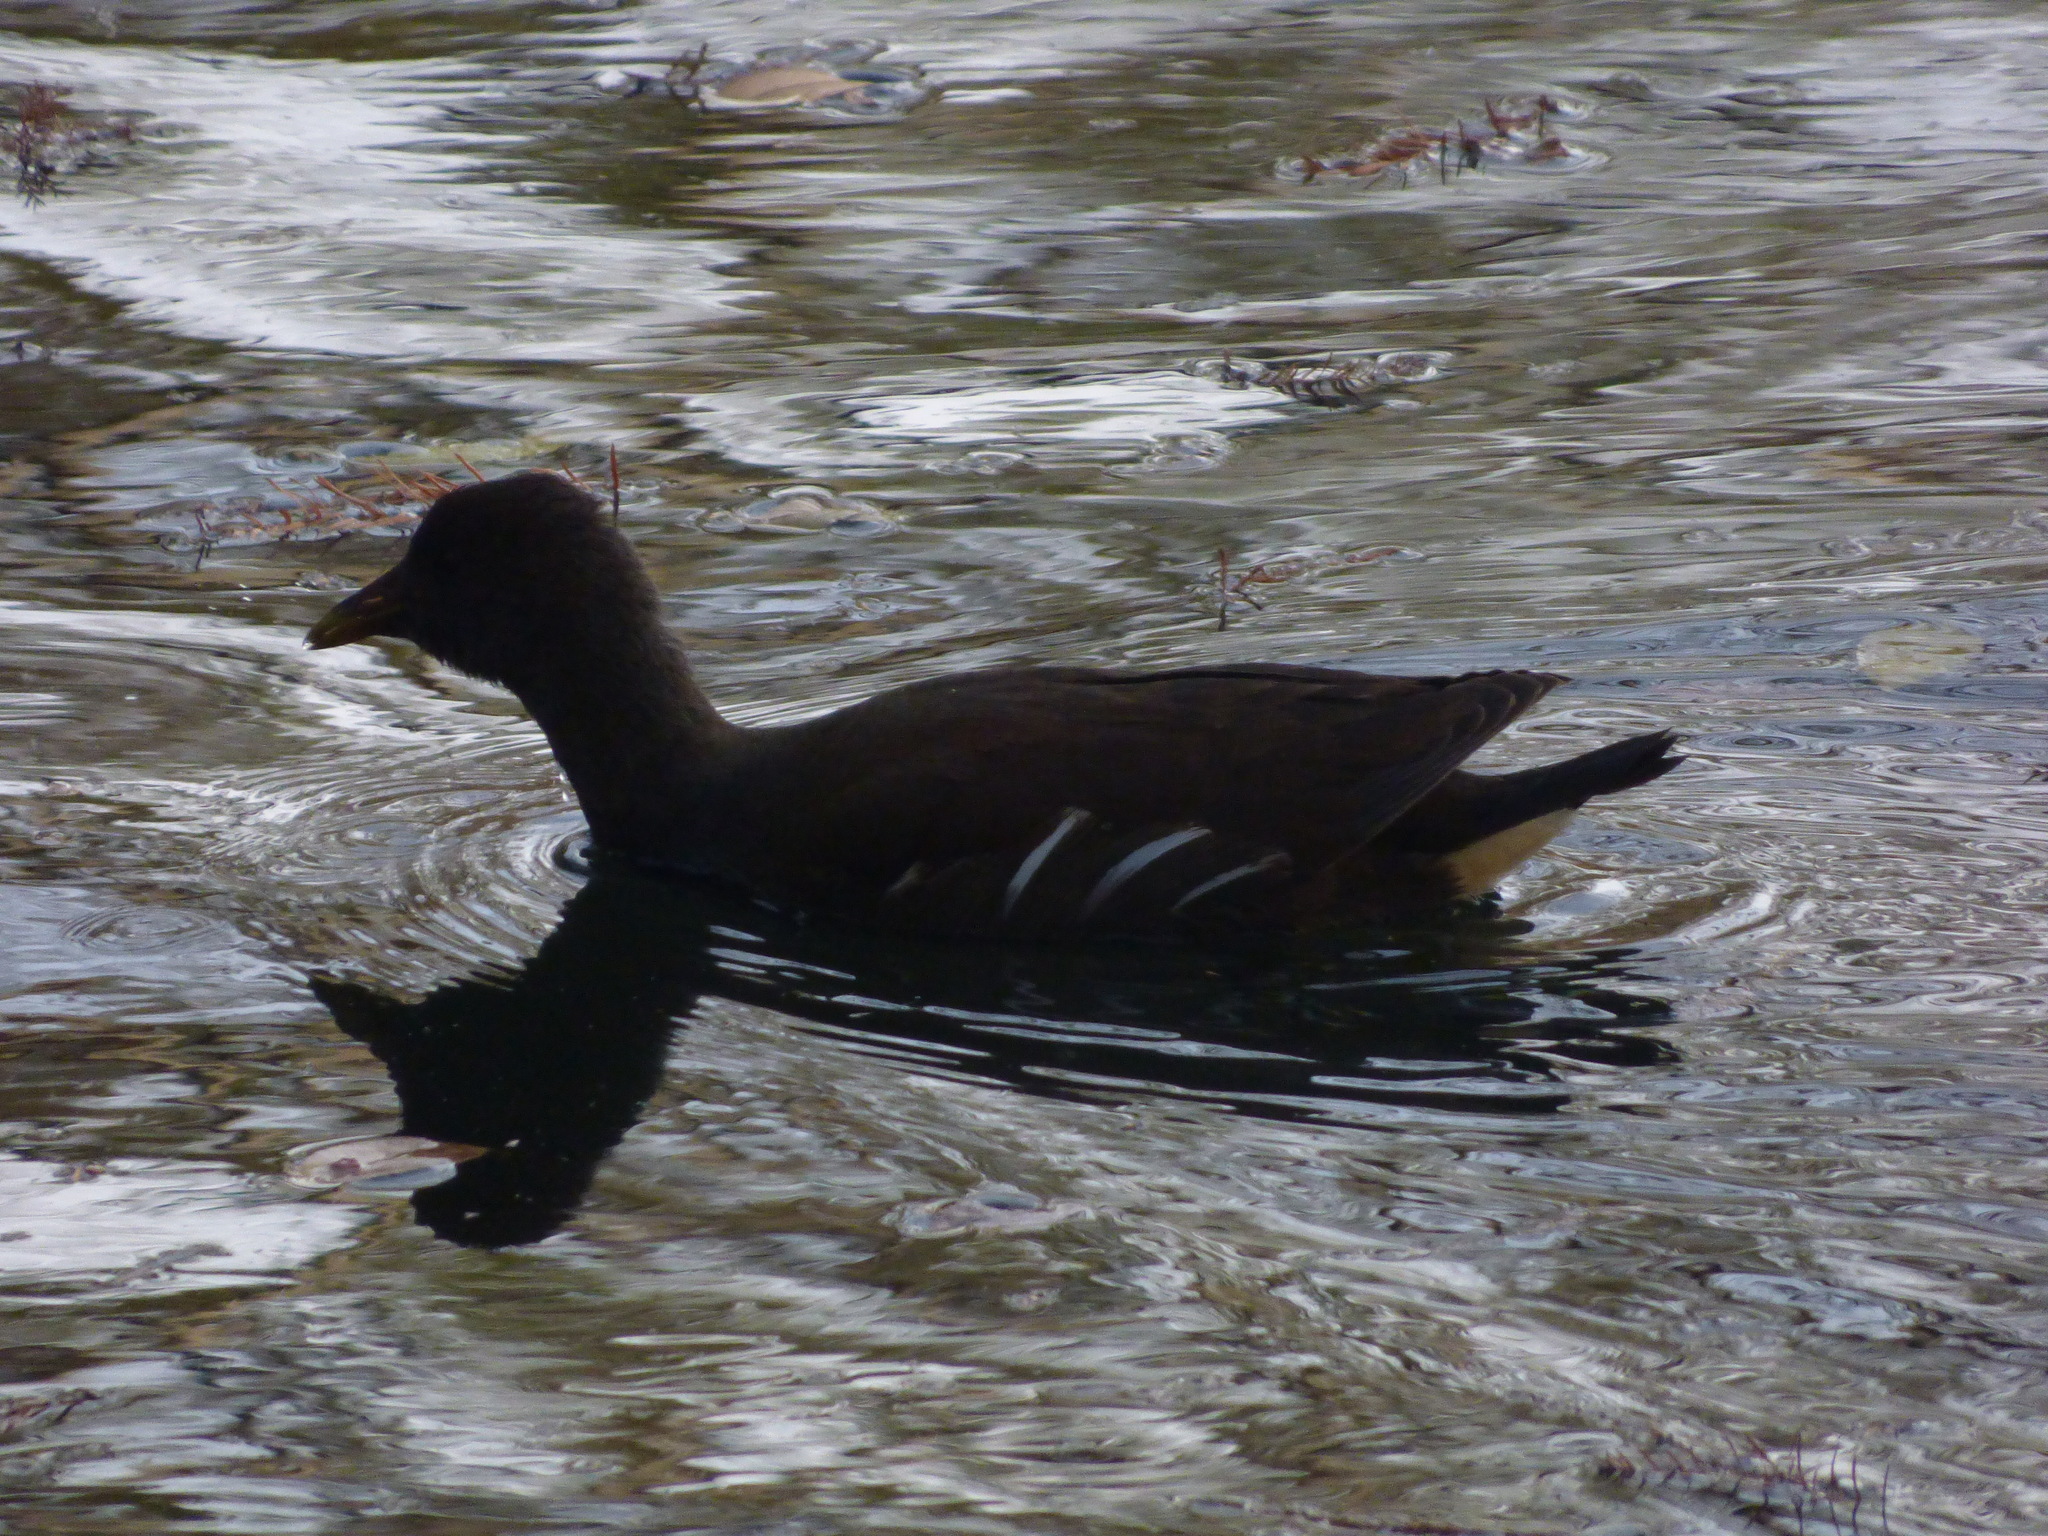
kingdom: Animalia
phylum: Chordata
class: Aves
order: Gruiformes
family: Rallidae
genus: Gallinula
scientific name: Gallinula chloropus
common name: Common moorhen
